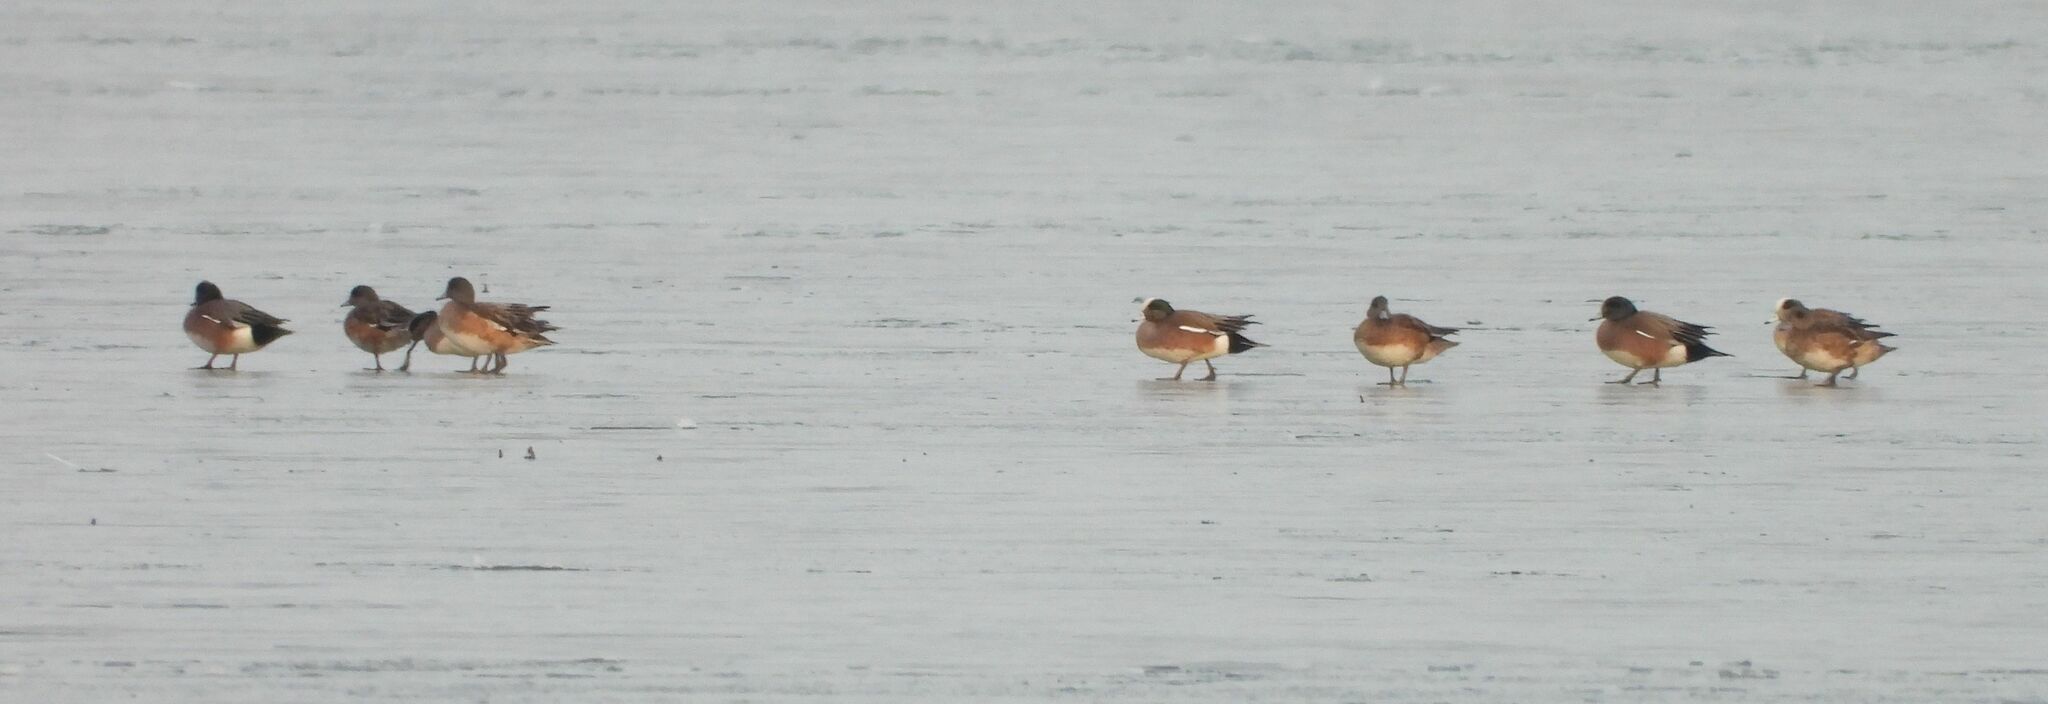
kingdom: Animalia
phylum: Chordata
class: Aves
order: Anseriformes
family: Anatidae
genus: Mareca
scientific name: Mareca americana
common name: American wigeon
